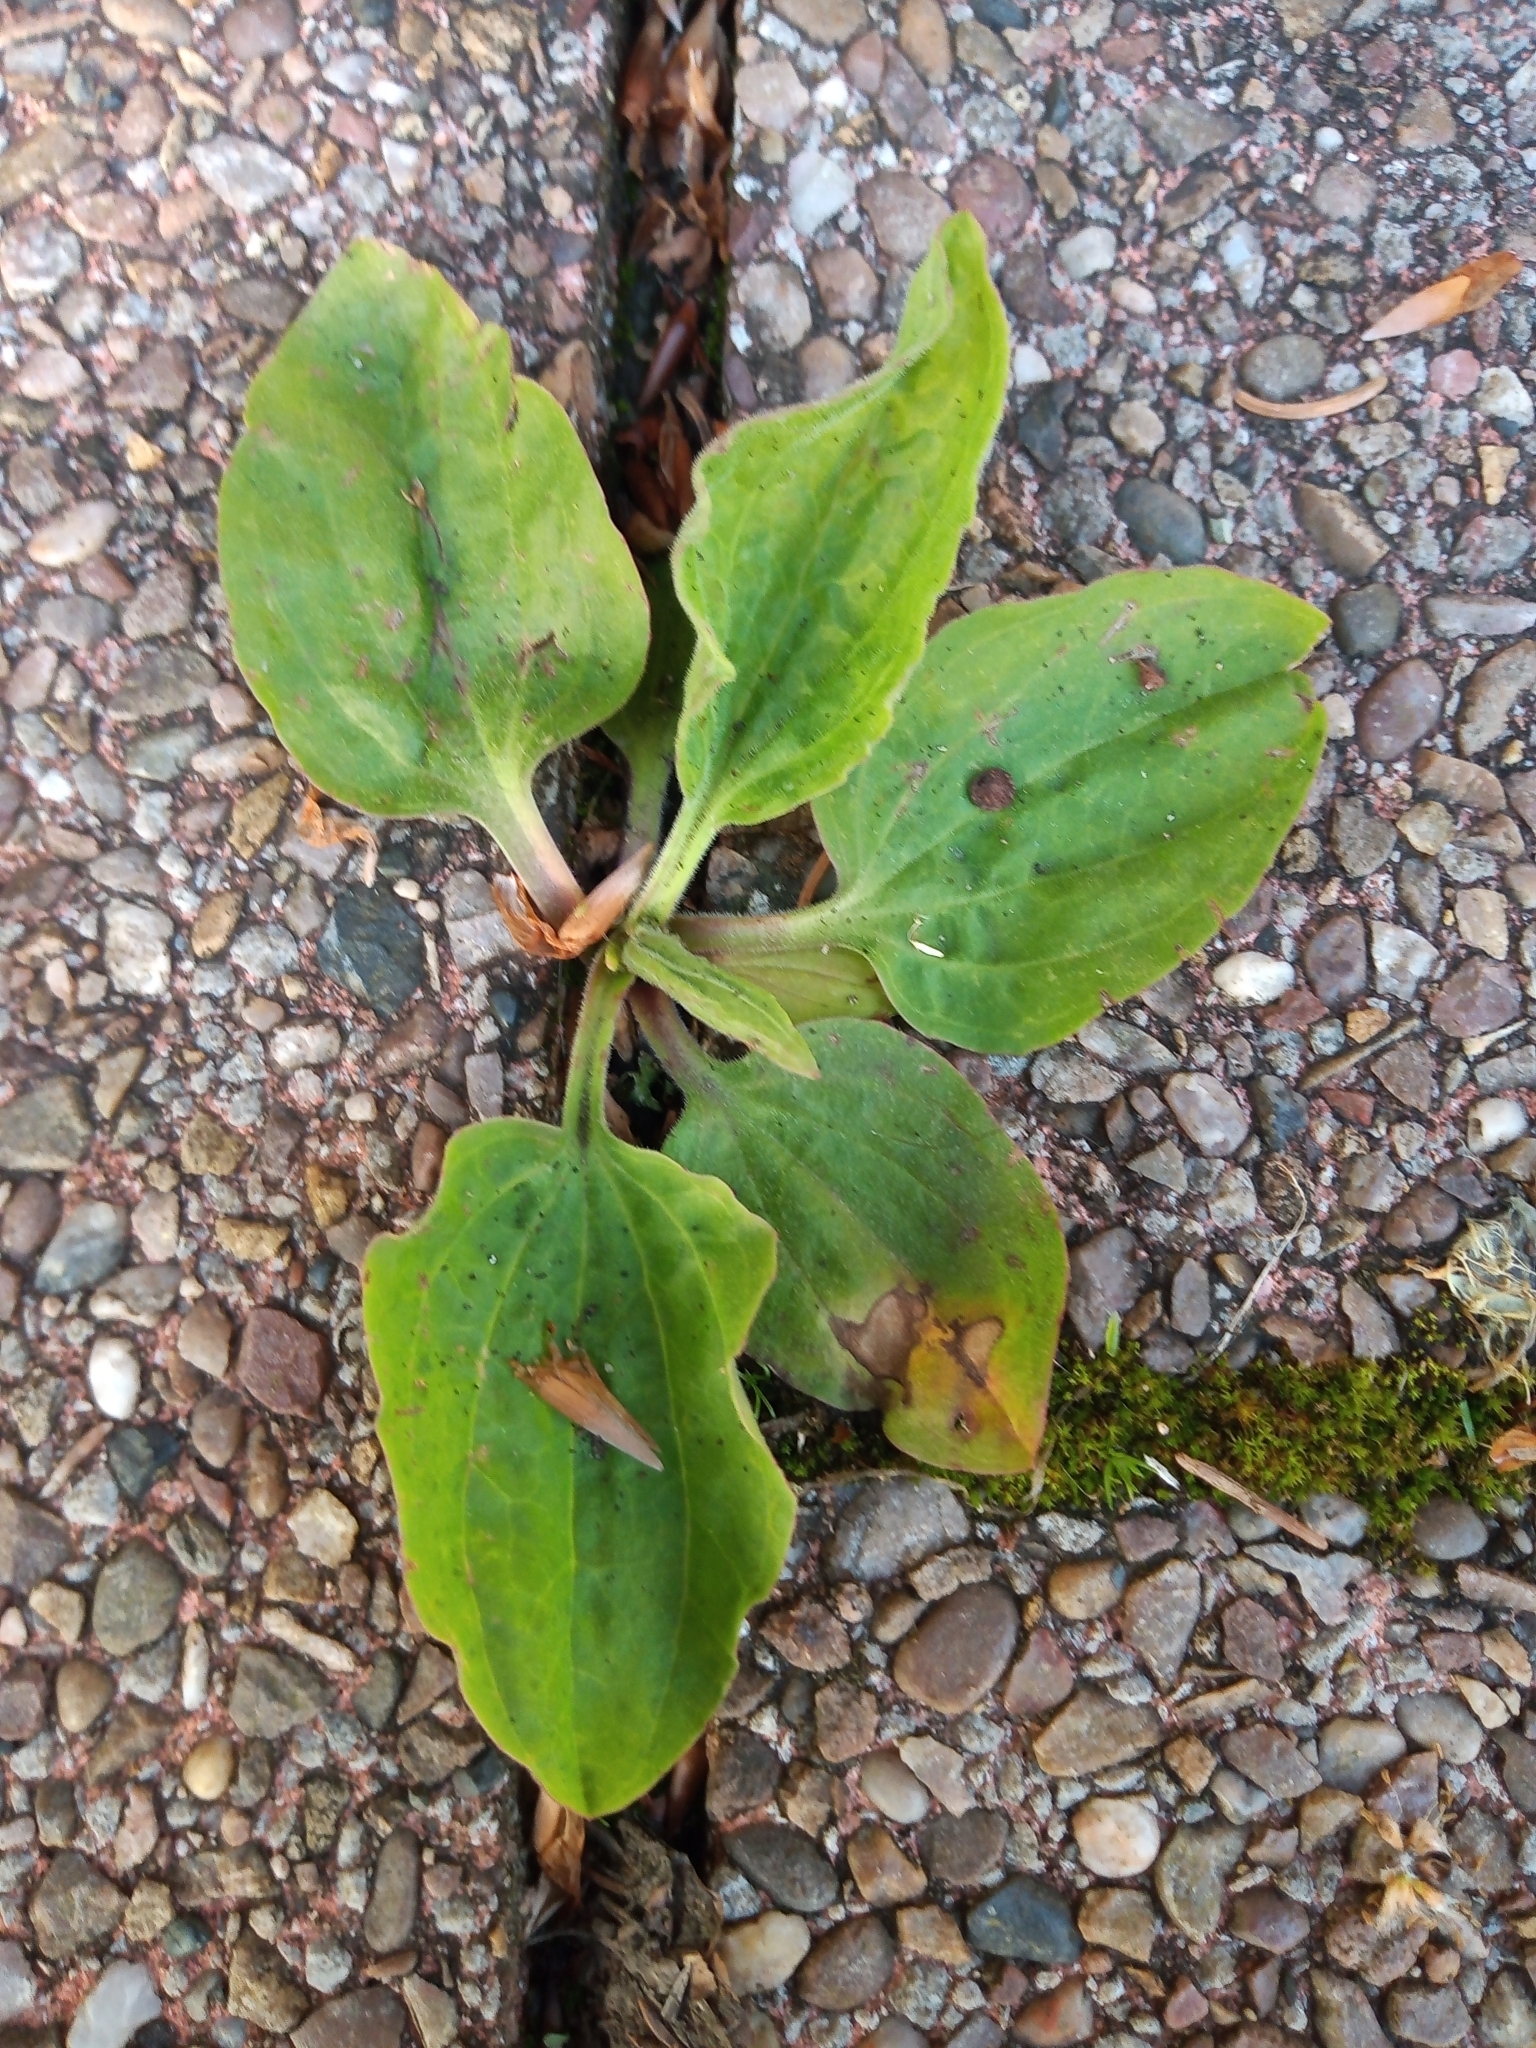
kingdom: Plantae
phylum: Tracheophyta
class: Magnoliopsida
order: Lamiales
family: Plantaginaceae
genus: Plantago
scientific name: Plantago major
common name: Common plantain
